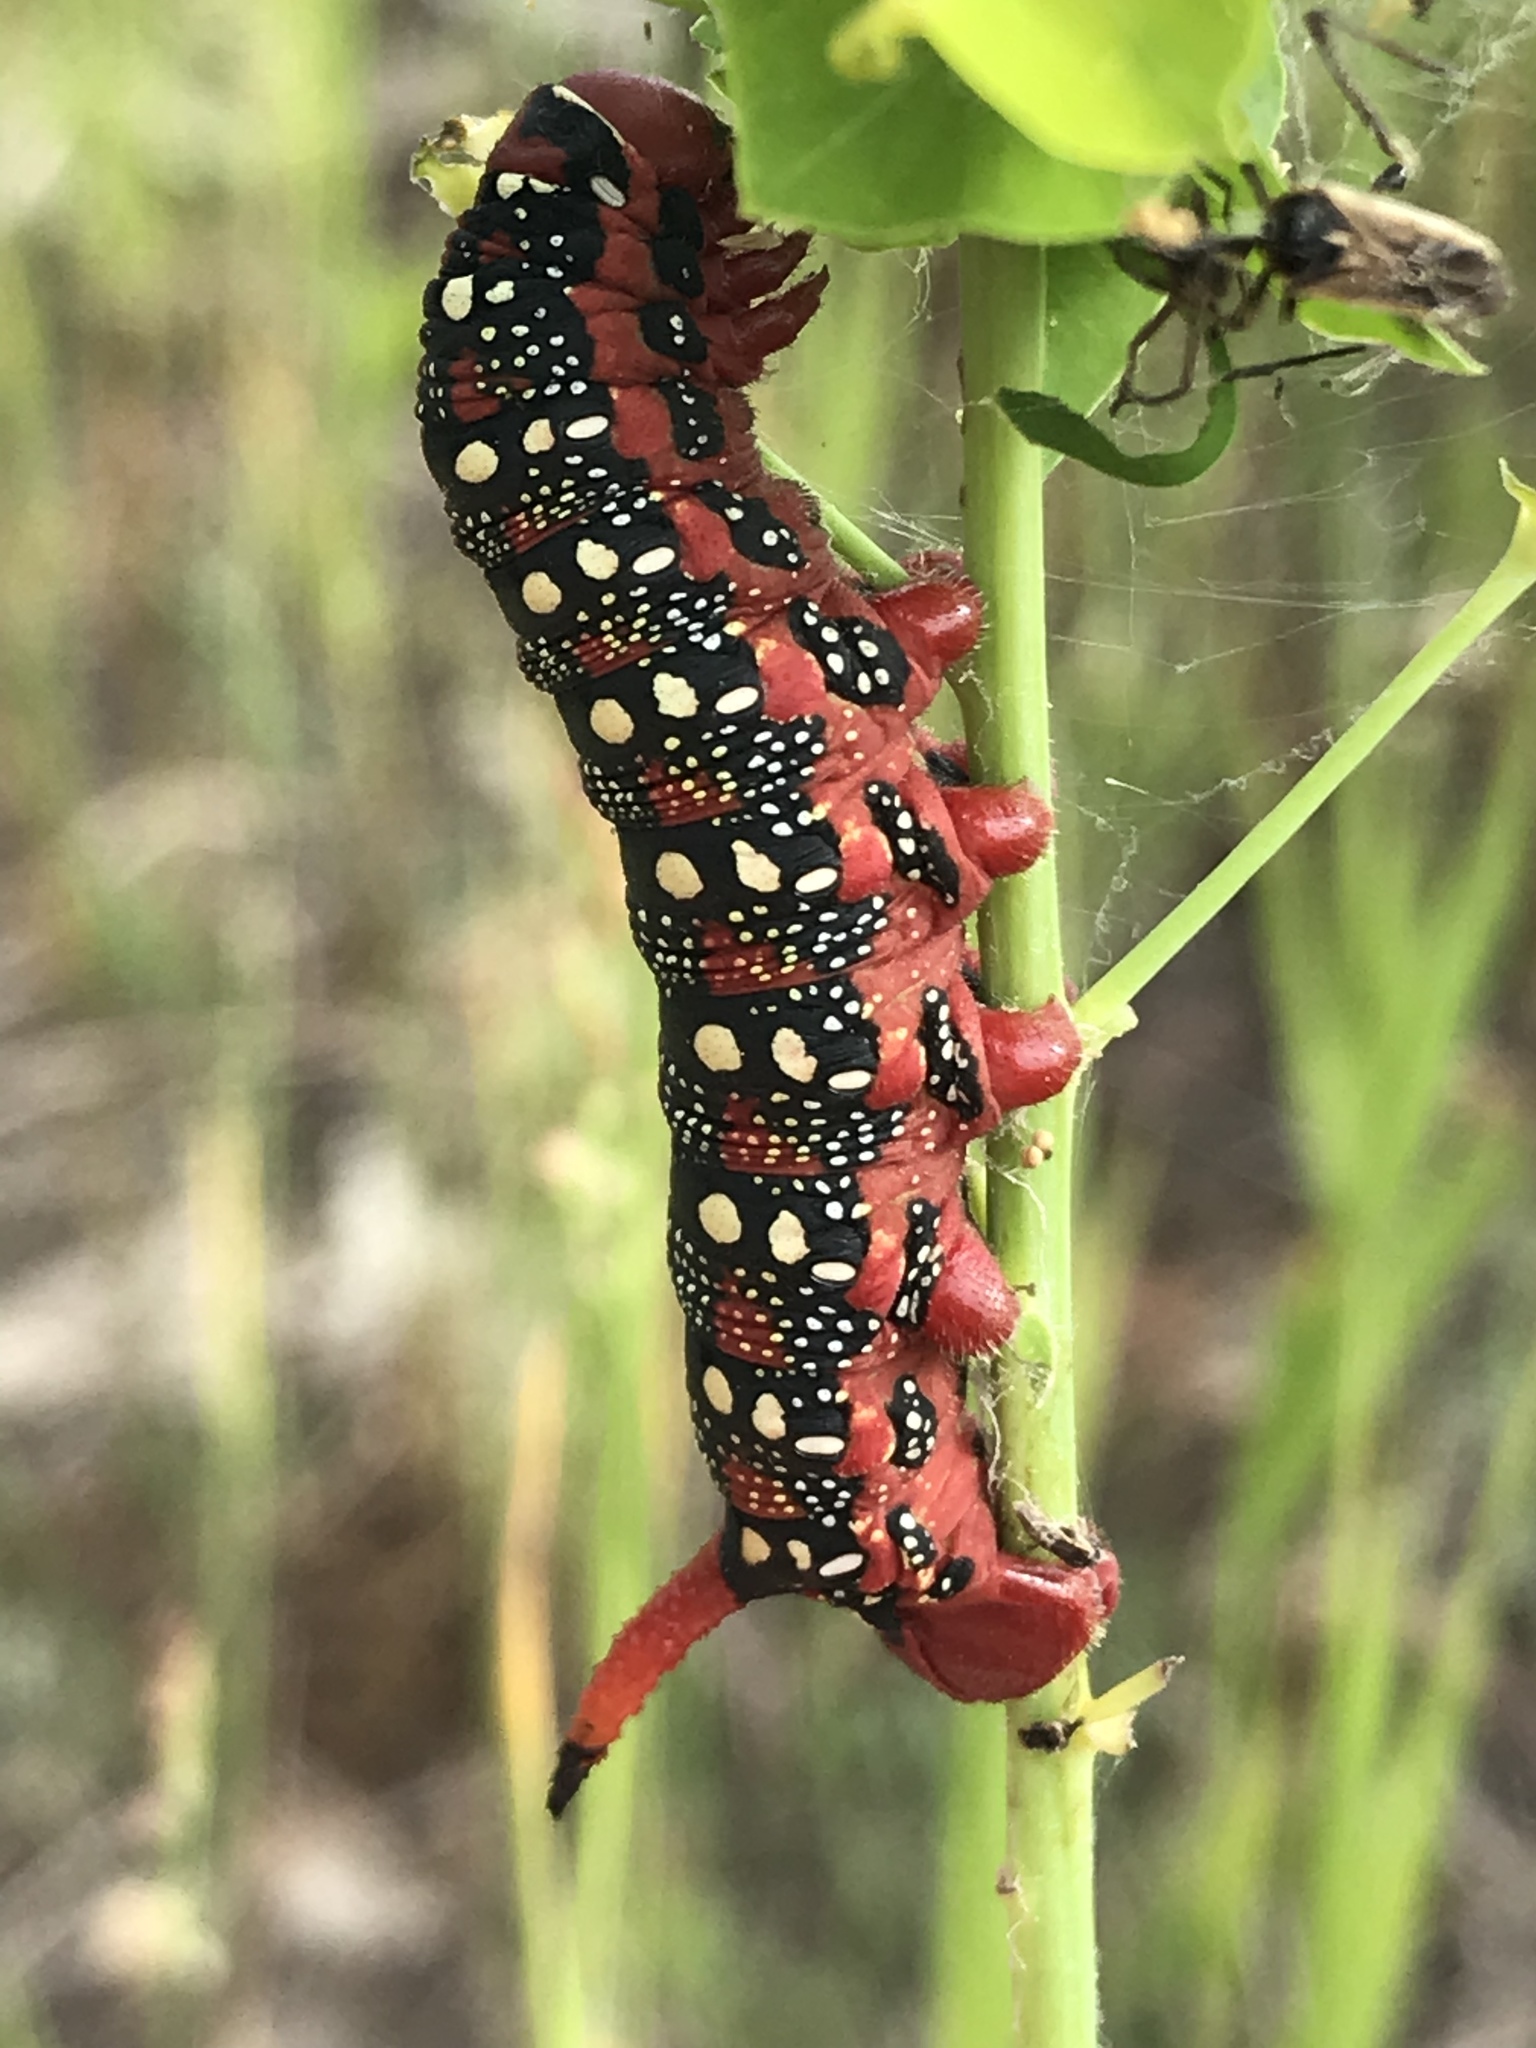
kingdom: Animalia
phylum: Arthropoda
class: Insecta
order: Lepidoptera
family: Sphingidae
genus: Hyles
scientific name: Hyles euphorbiae
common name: Spurge hawk-moth
